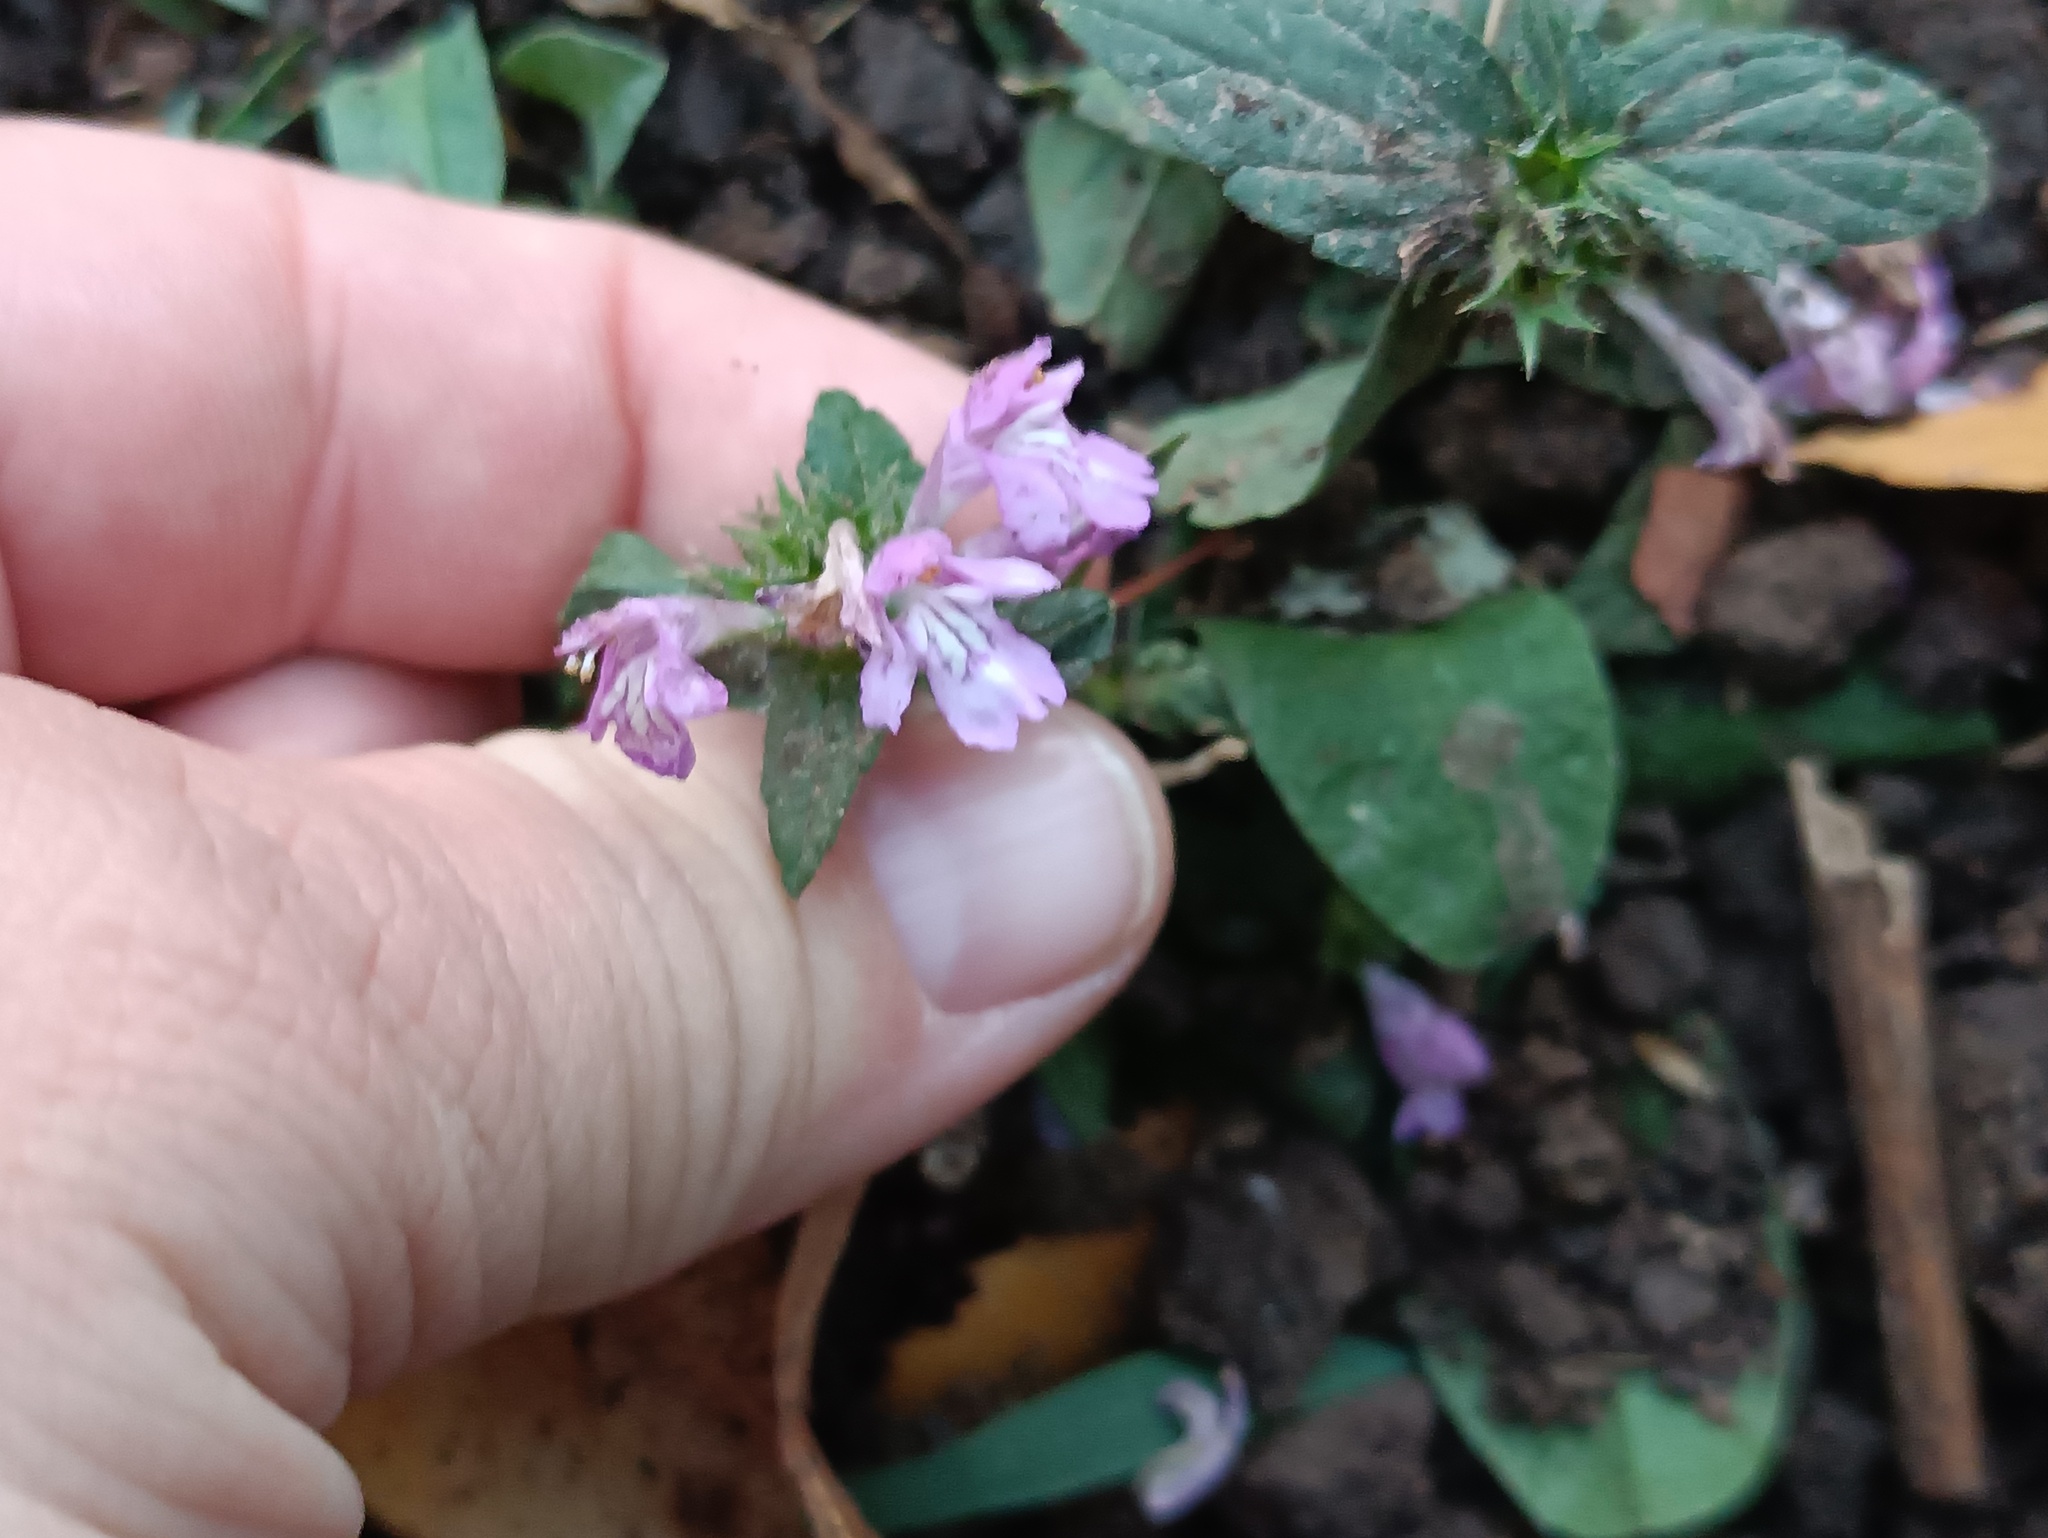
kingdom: Plantae
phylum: Tracheophyta
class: Magnoliopsida
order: Lamiales
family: Lamiaceae
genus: Galeopsis
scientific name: Galeopsis ladanum
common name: Broad-leaved hemp-nettle
